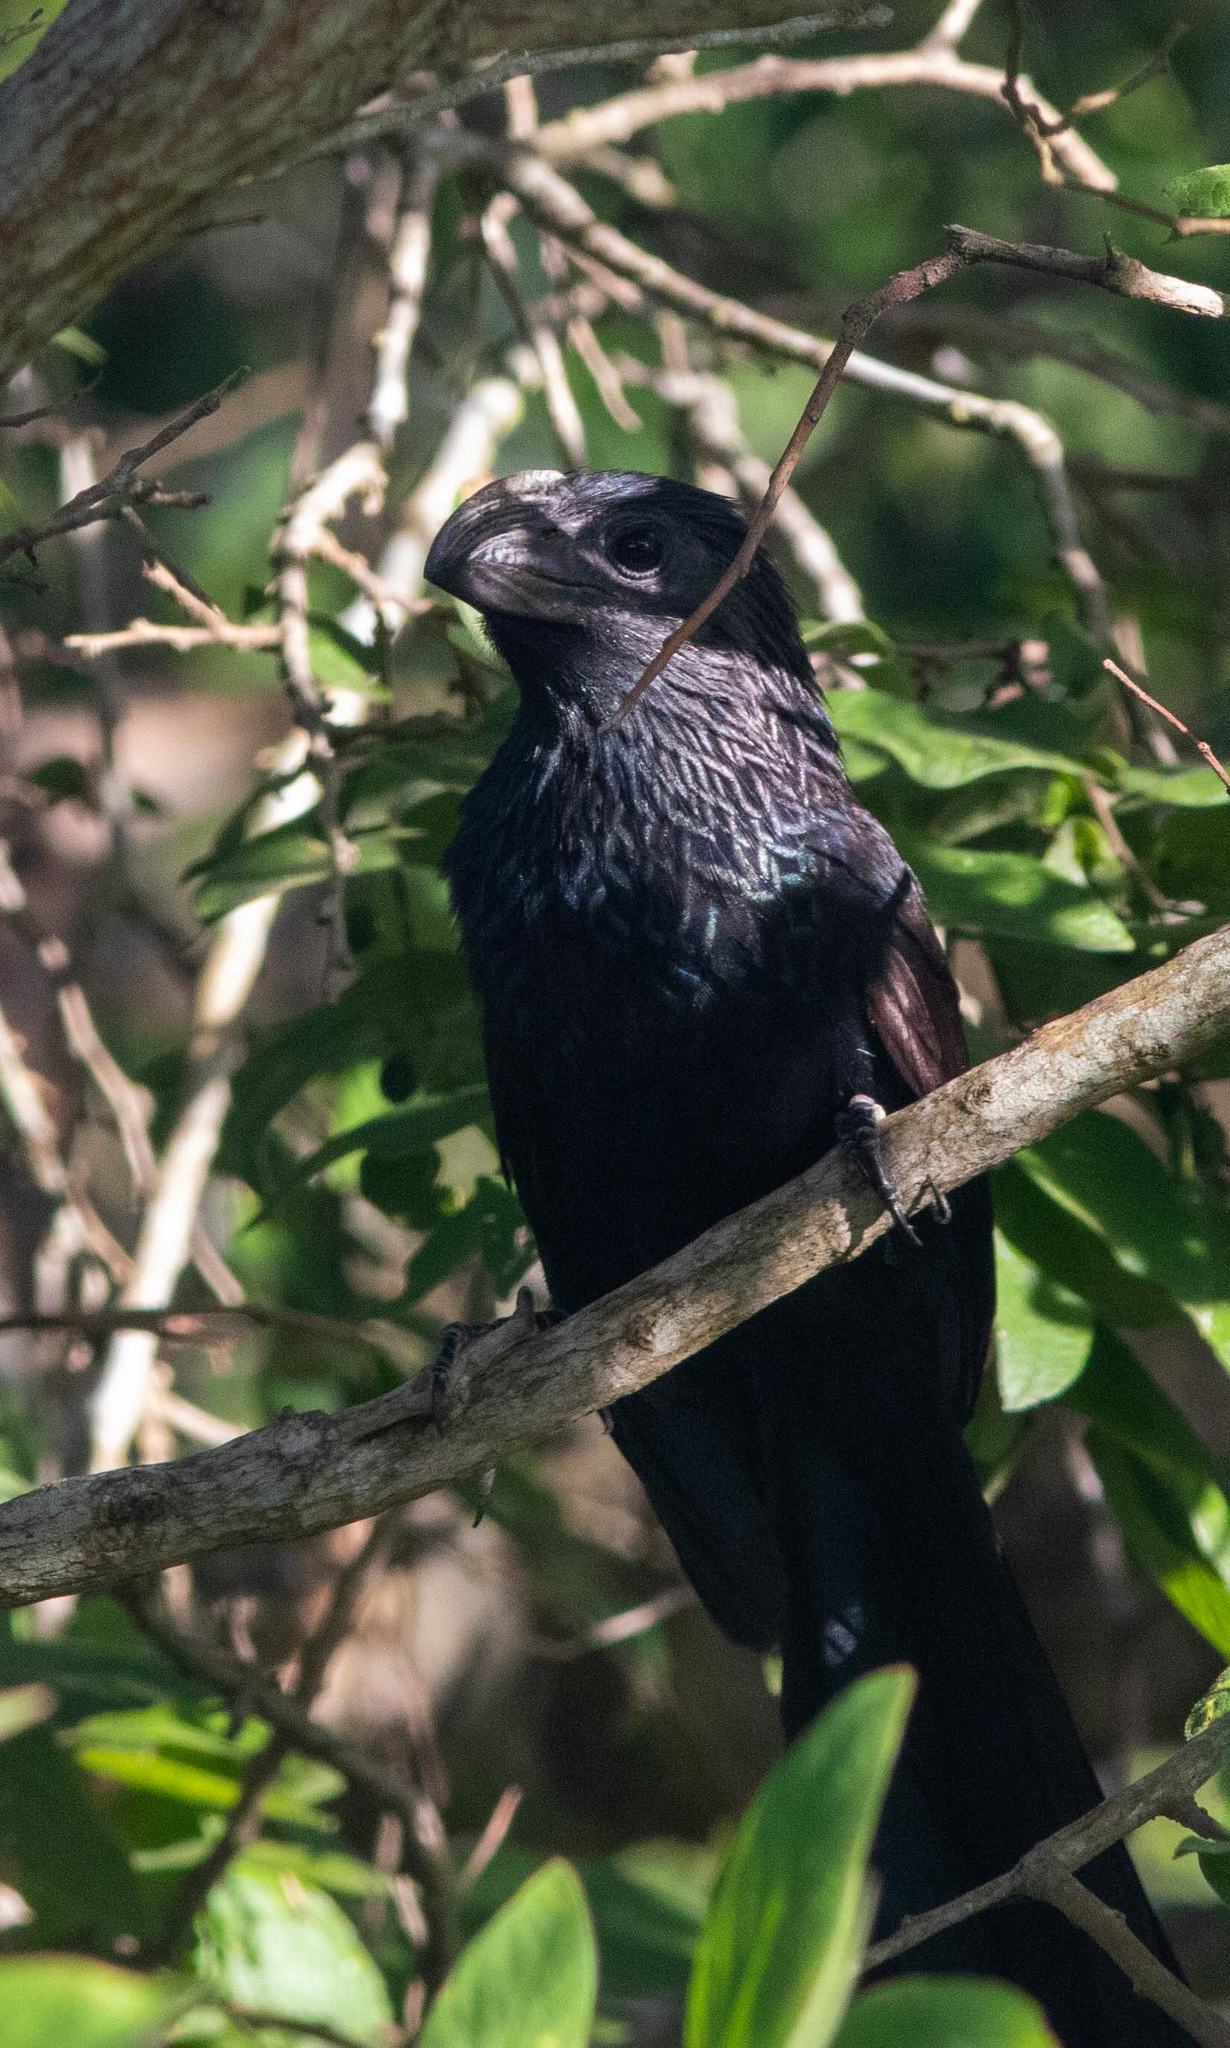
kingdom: Animalia
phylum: Chordata
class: Aves
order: Cuculiformes
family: Cuculidae
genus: Crotophaga
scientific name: Crotophaga sulcirostris
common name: Groove-billed ani
